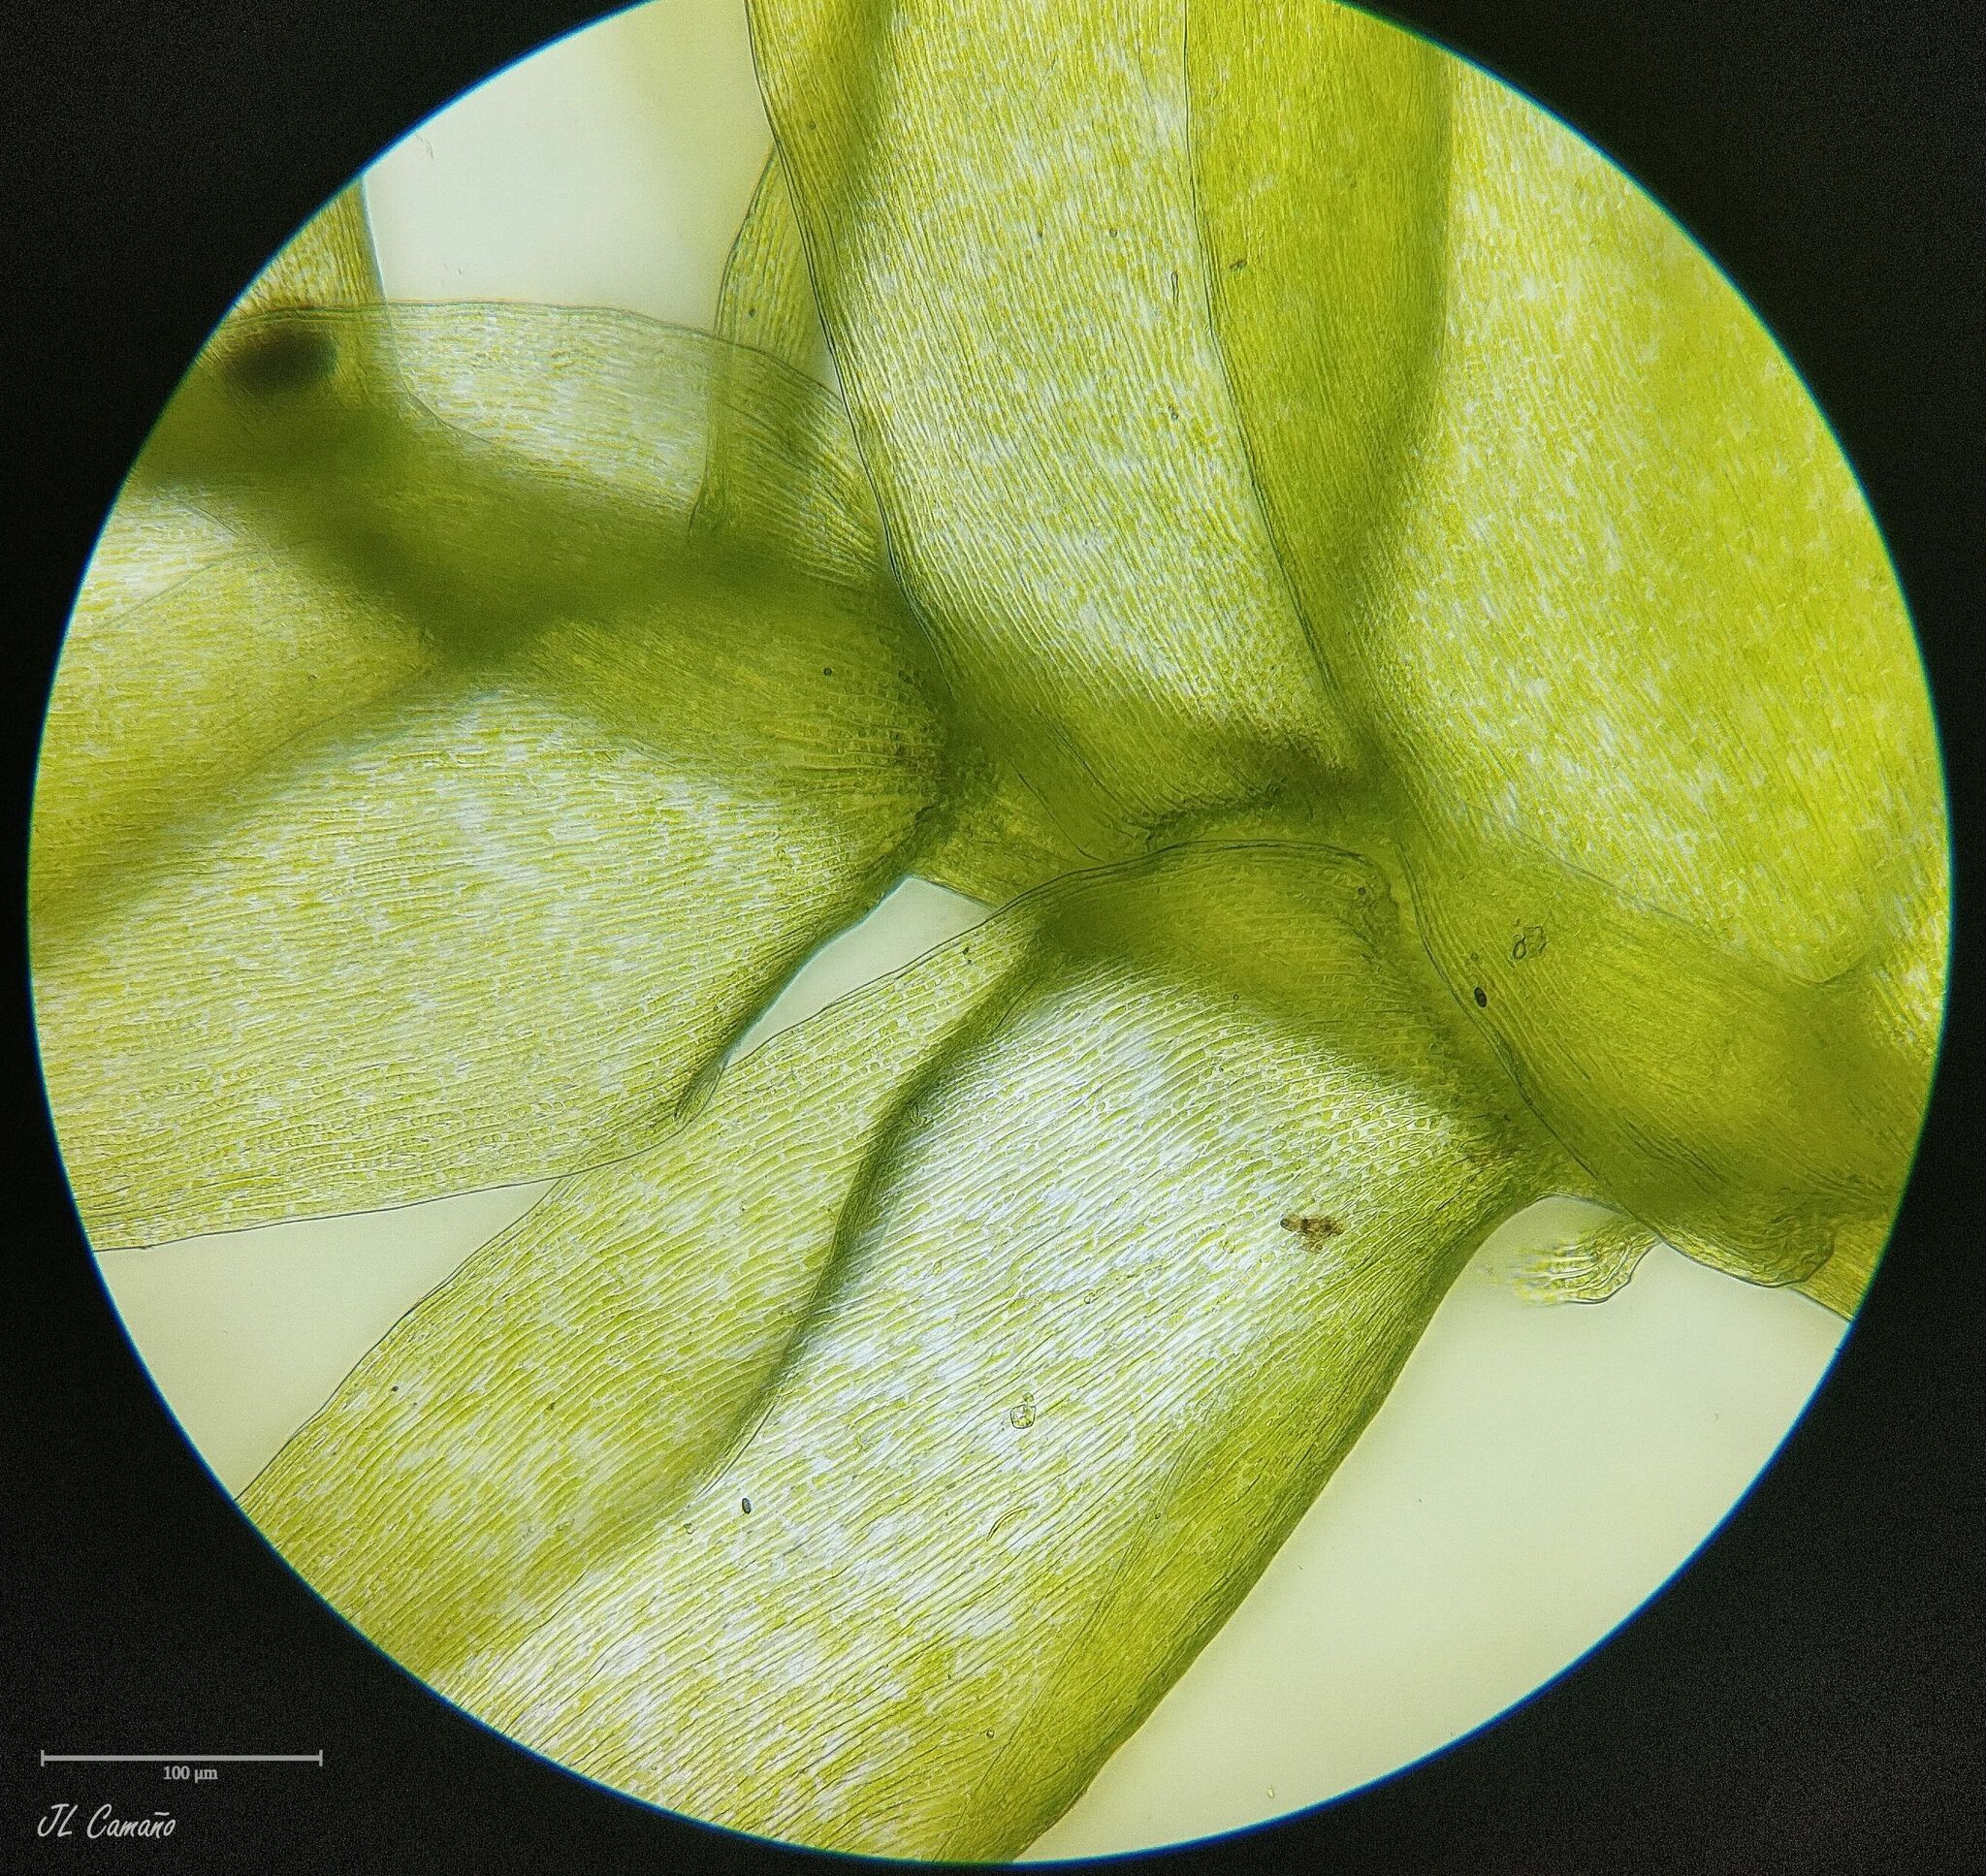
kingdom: Plantae
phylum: Bryophyta
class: Bryopsida
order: Hypnales
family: Plagiotheciaceae
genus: Pseudotaxiphyllum
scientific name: Pseudotaxiphyllum elegans
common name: Elegant silk moss
